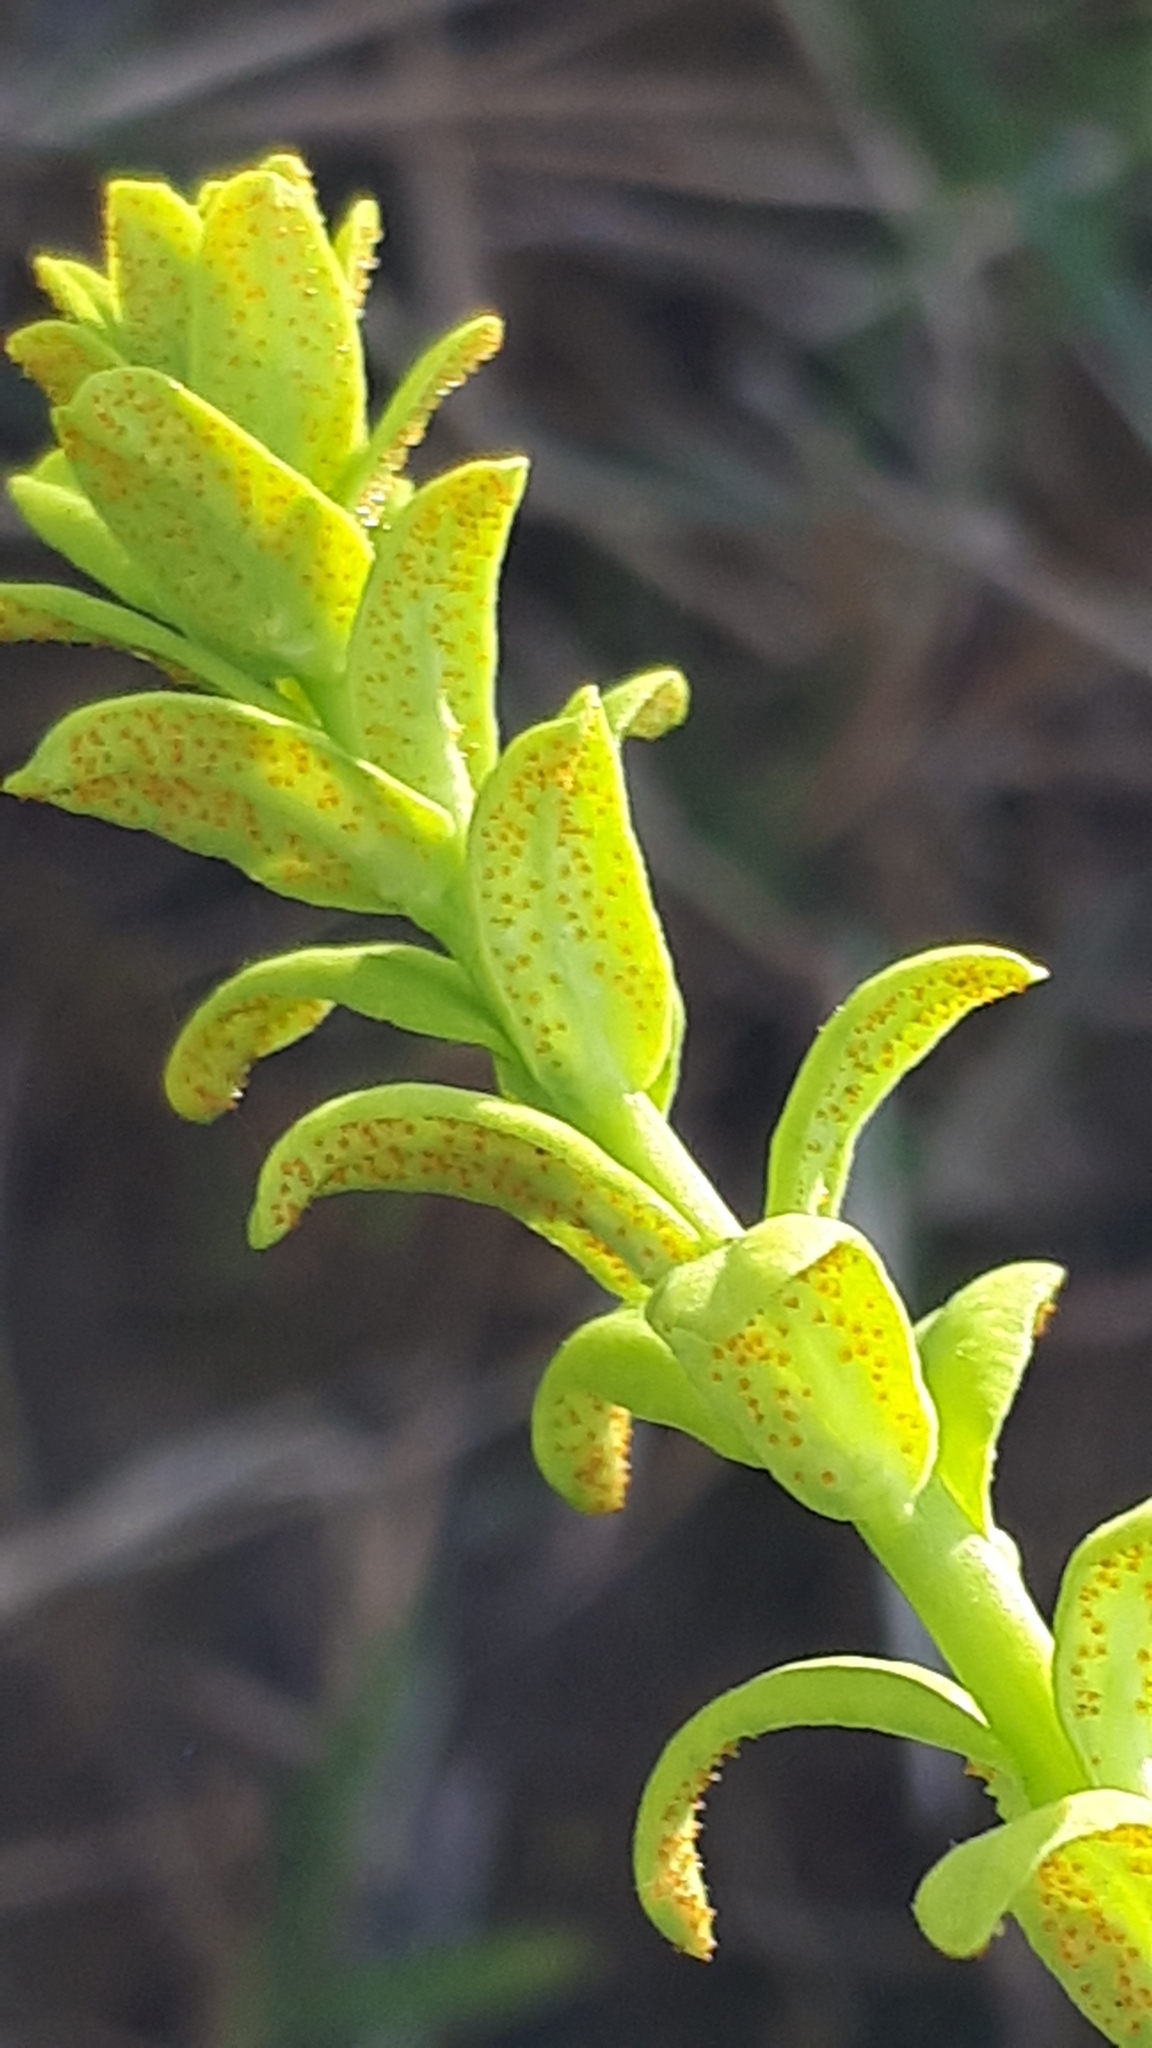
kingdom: Fungi
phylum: Basidiomycota
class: Pucciniomycetes
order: Pucciniales
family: Pucciniaceae
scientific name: Pucciniaceae
